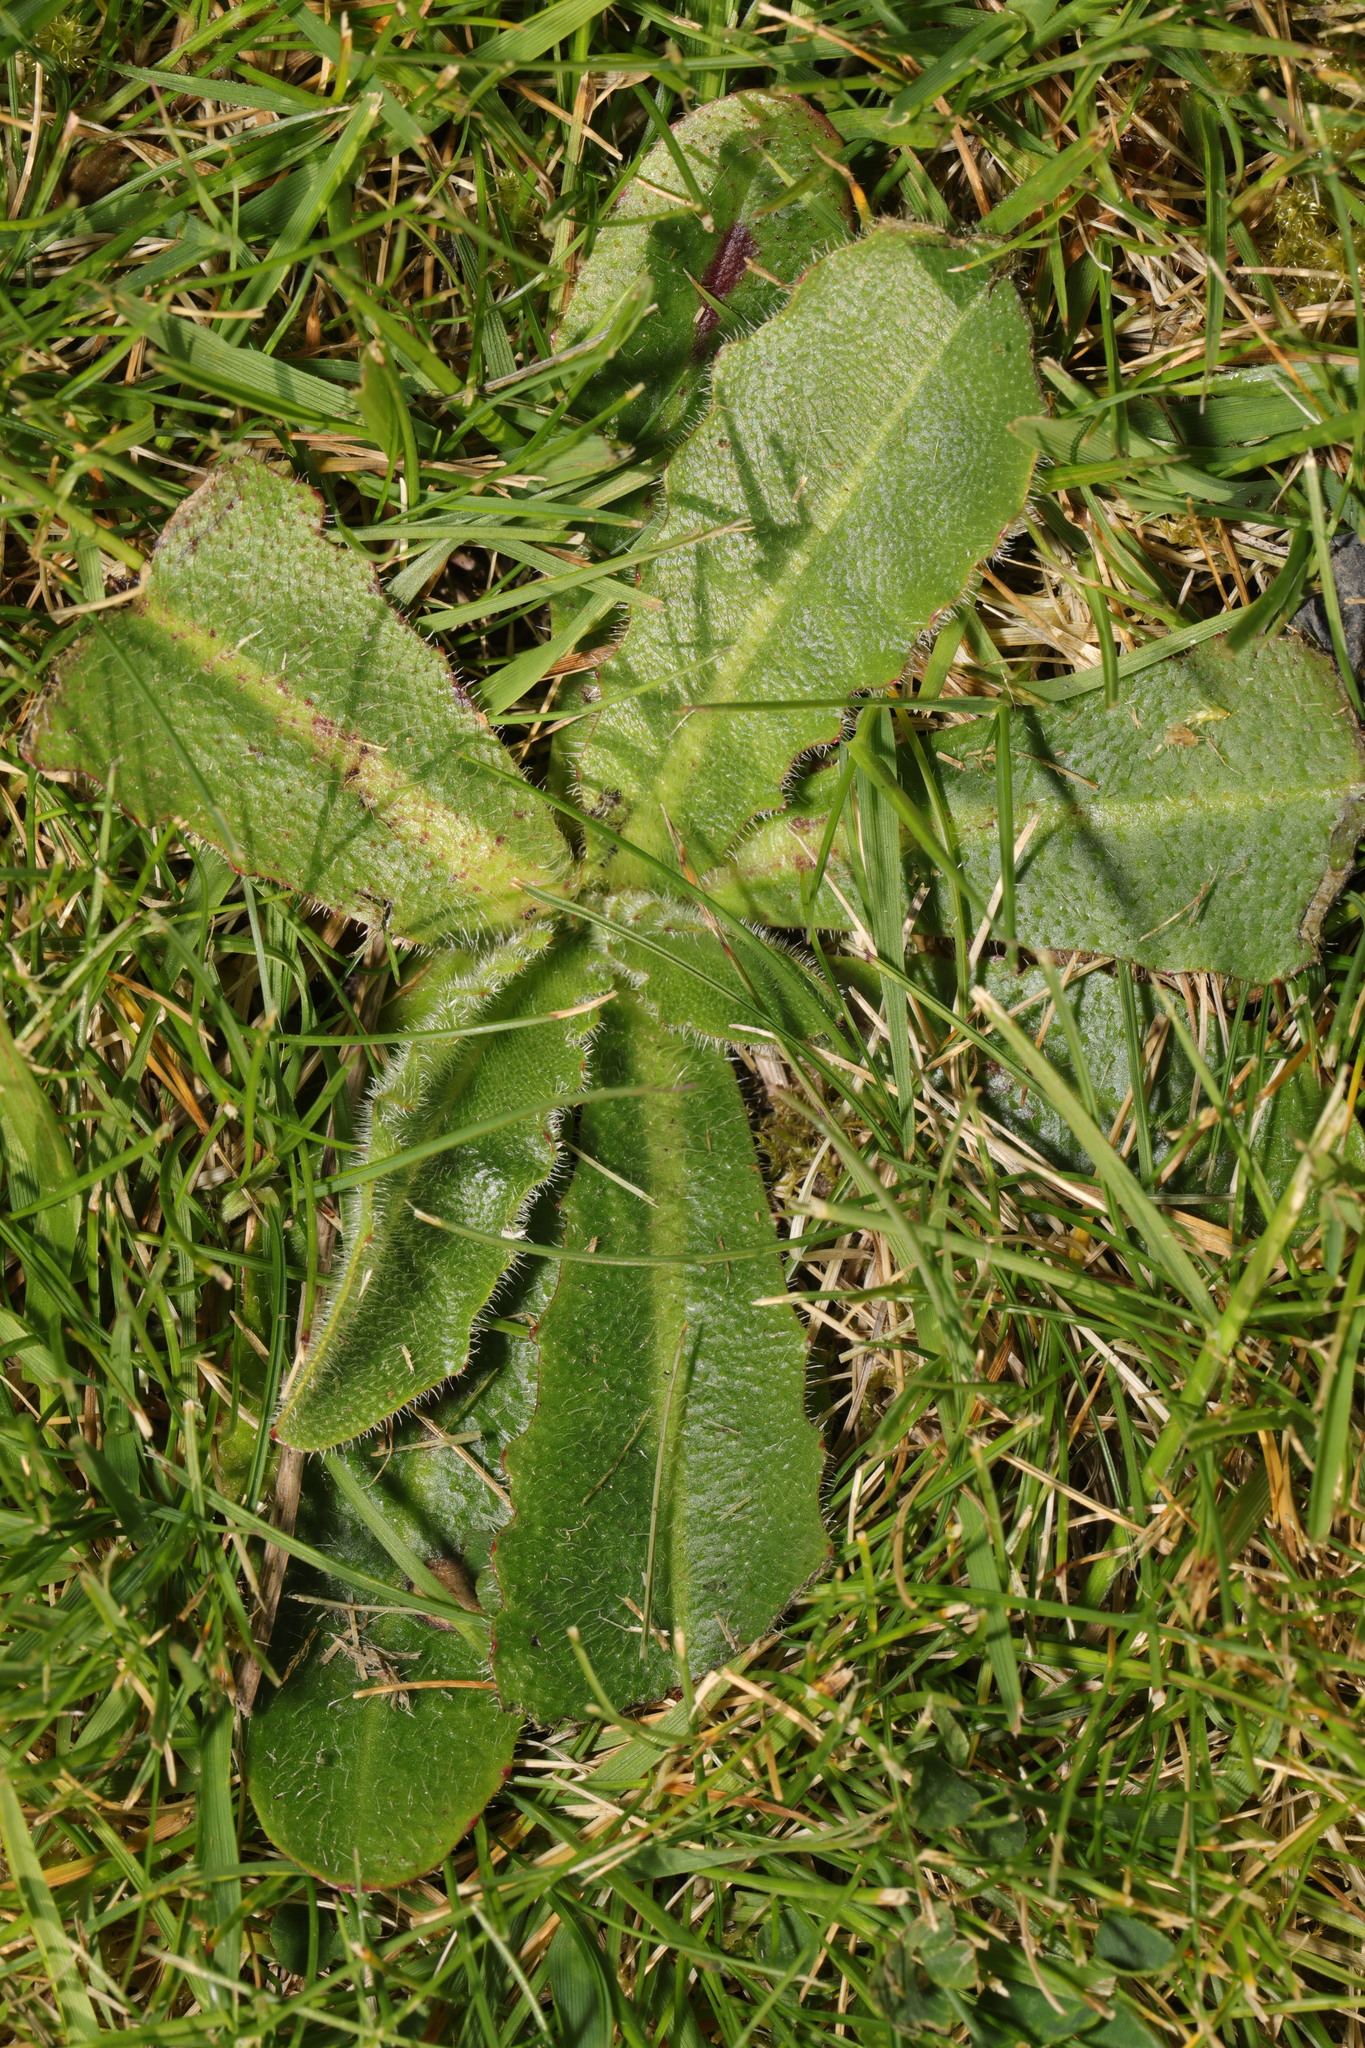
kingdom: Plantae
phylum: Tracheophyta
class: Magnoliopsida
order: Asterales
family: Asteraceae
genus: Hypochaeris
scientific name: Hypochaeris radicata
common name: Flatweed
